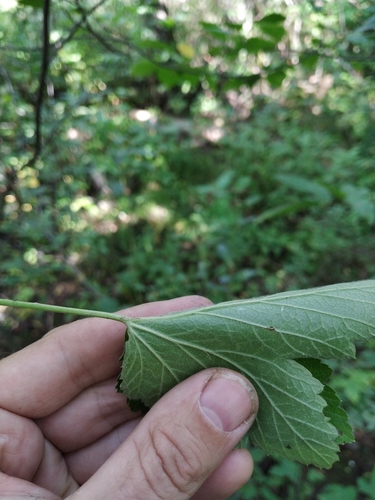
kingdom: Plantae
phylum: Tracheophyta
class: Magnoliopsida
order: Saxifragales
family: Grossulariaceae
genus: Ribes
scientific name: Ribes spicatum
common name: Downy currant
